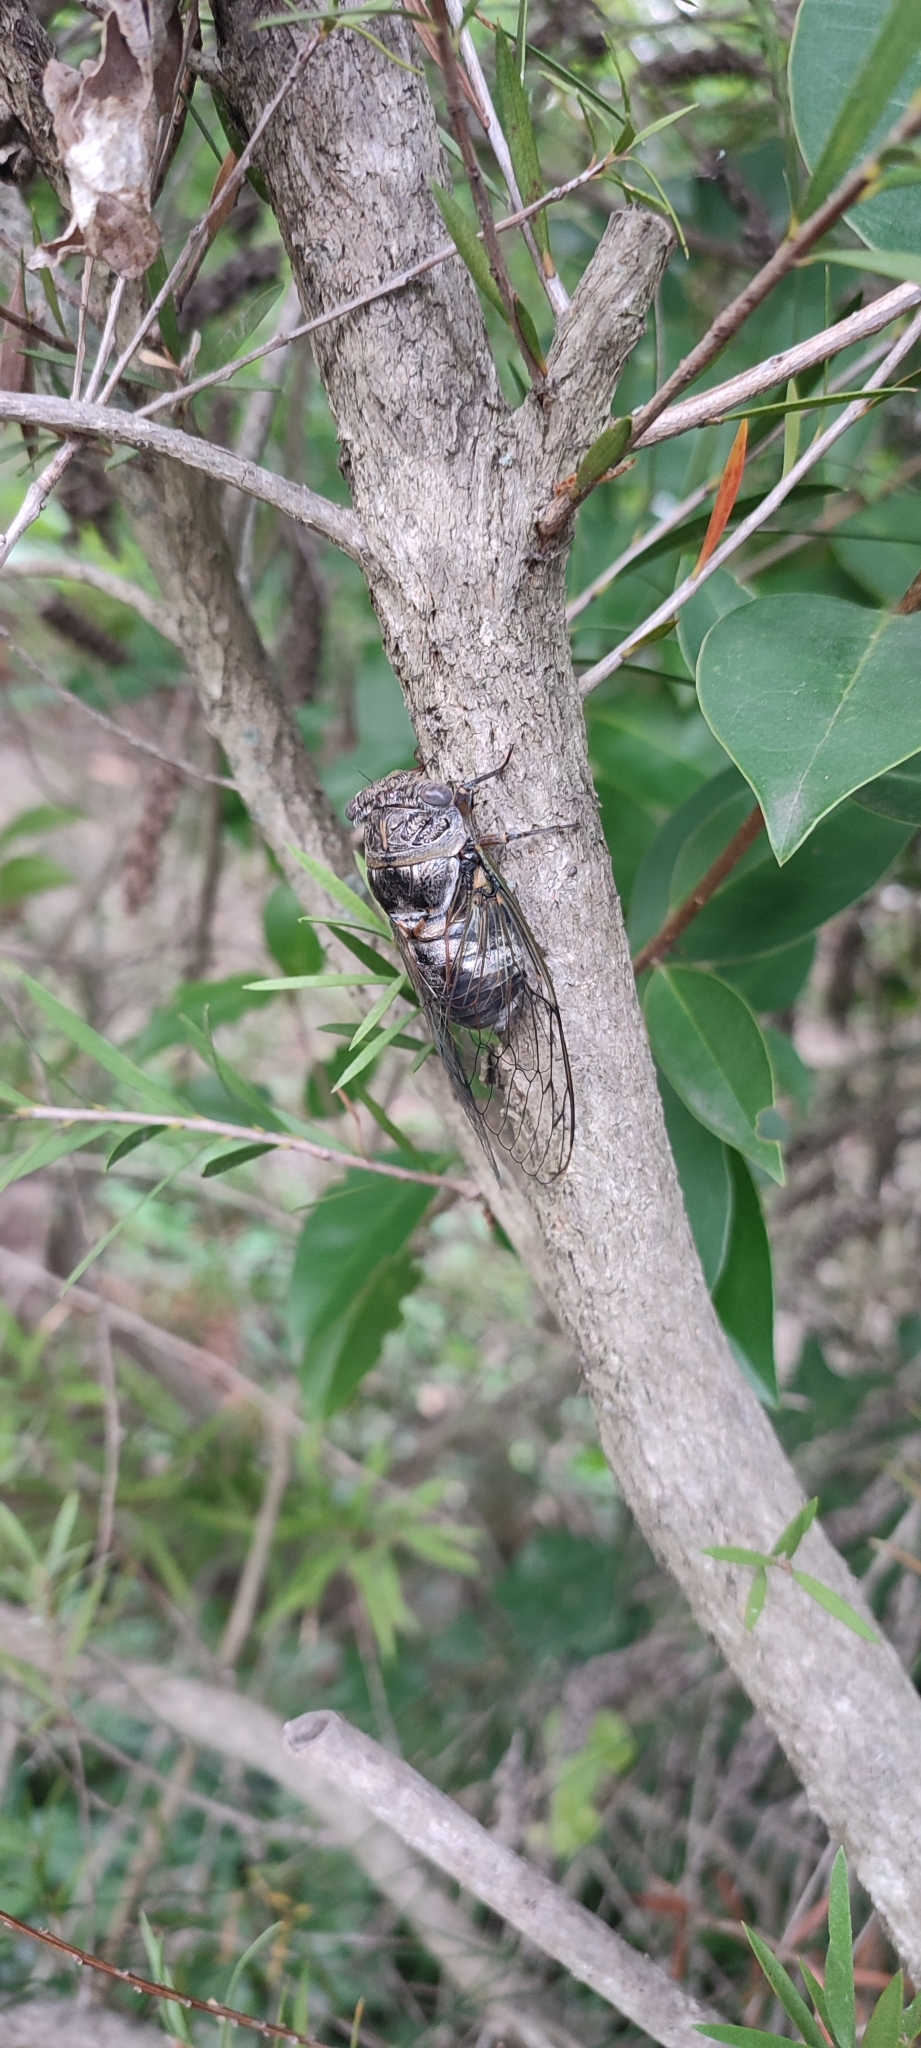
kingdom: Animalia
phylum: Arthropoda
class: Insecta
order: Hemiptera
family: Cicadidae
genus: Lyristes
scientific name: Lyristes plebejus
